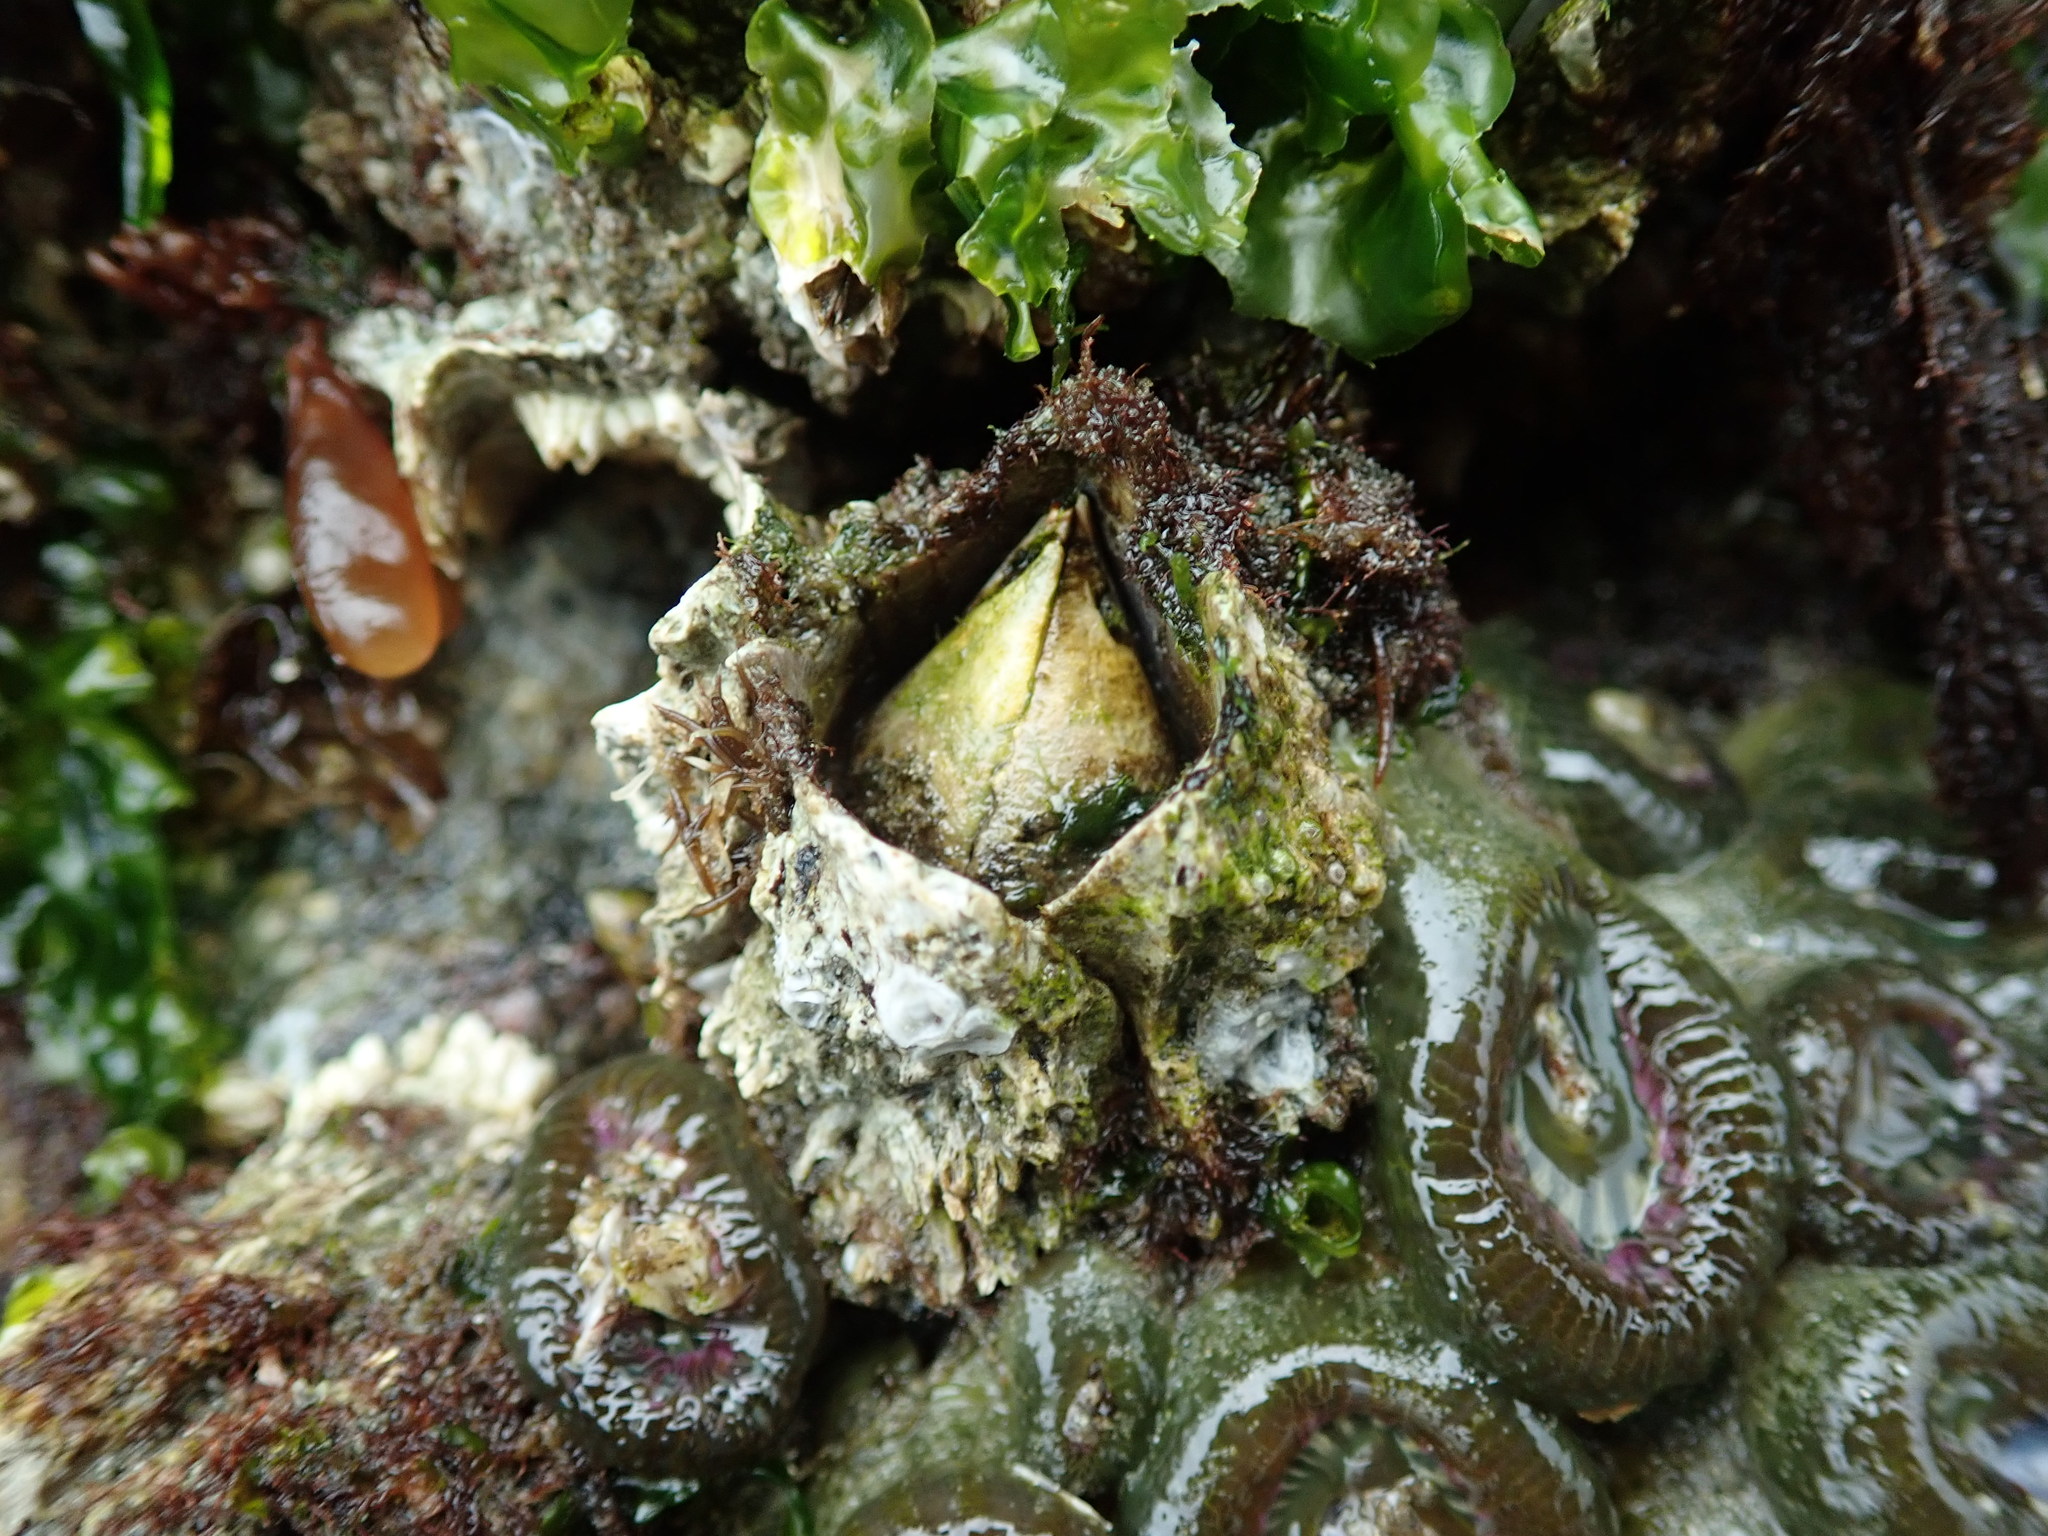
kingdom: Animalia
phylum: Arthropoda
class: Maxillopoda
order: Sessilia
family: Archaeobalanidae
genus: Semibalanus
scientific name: Semibalanus cariosus
